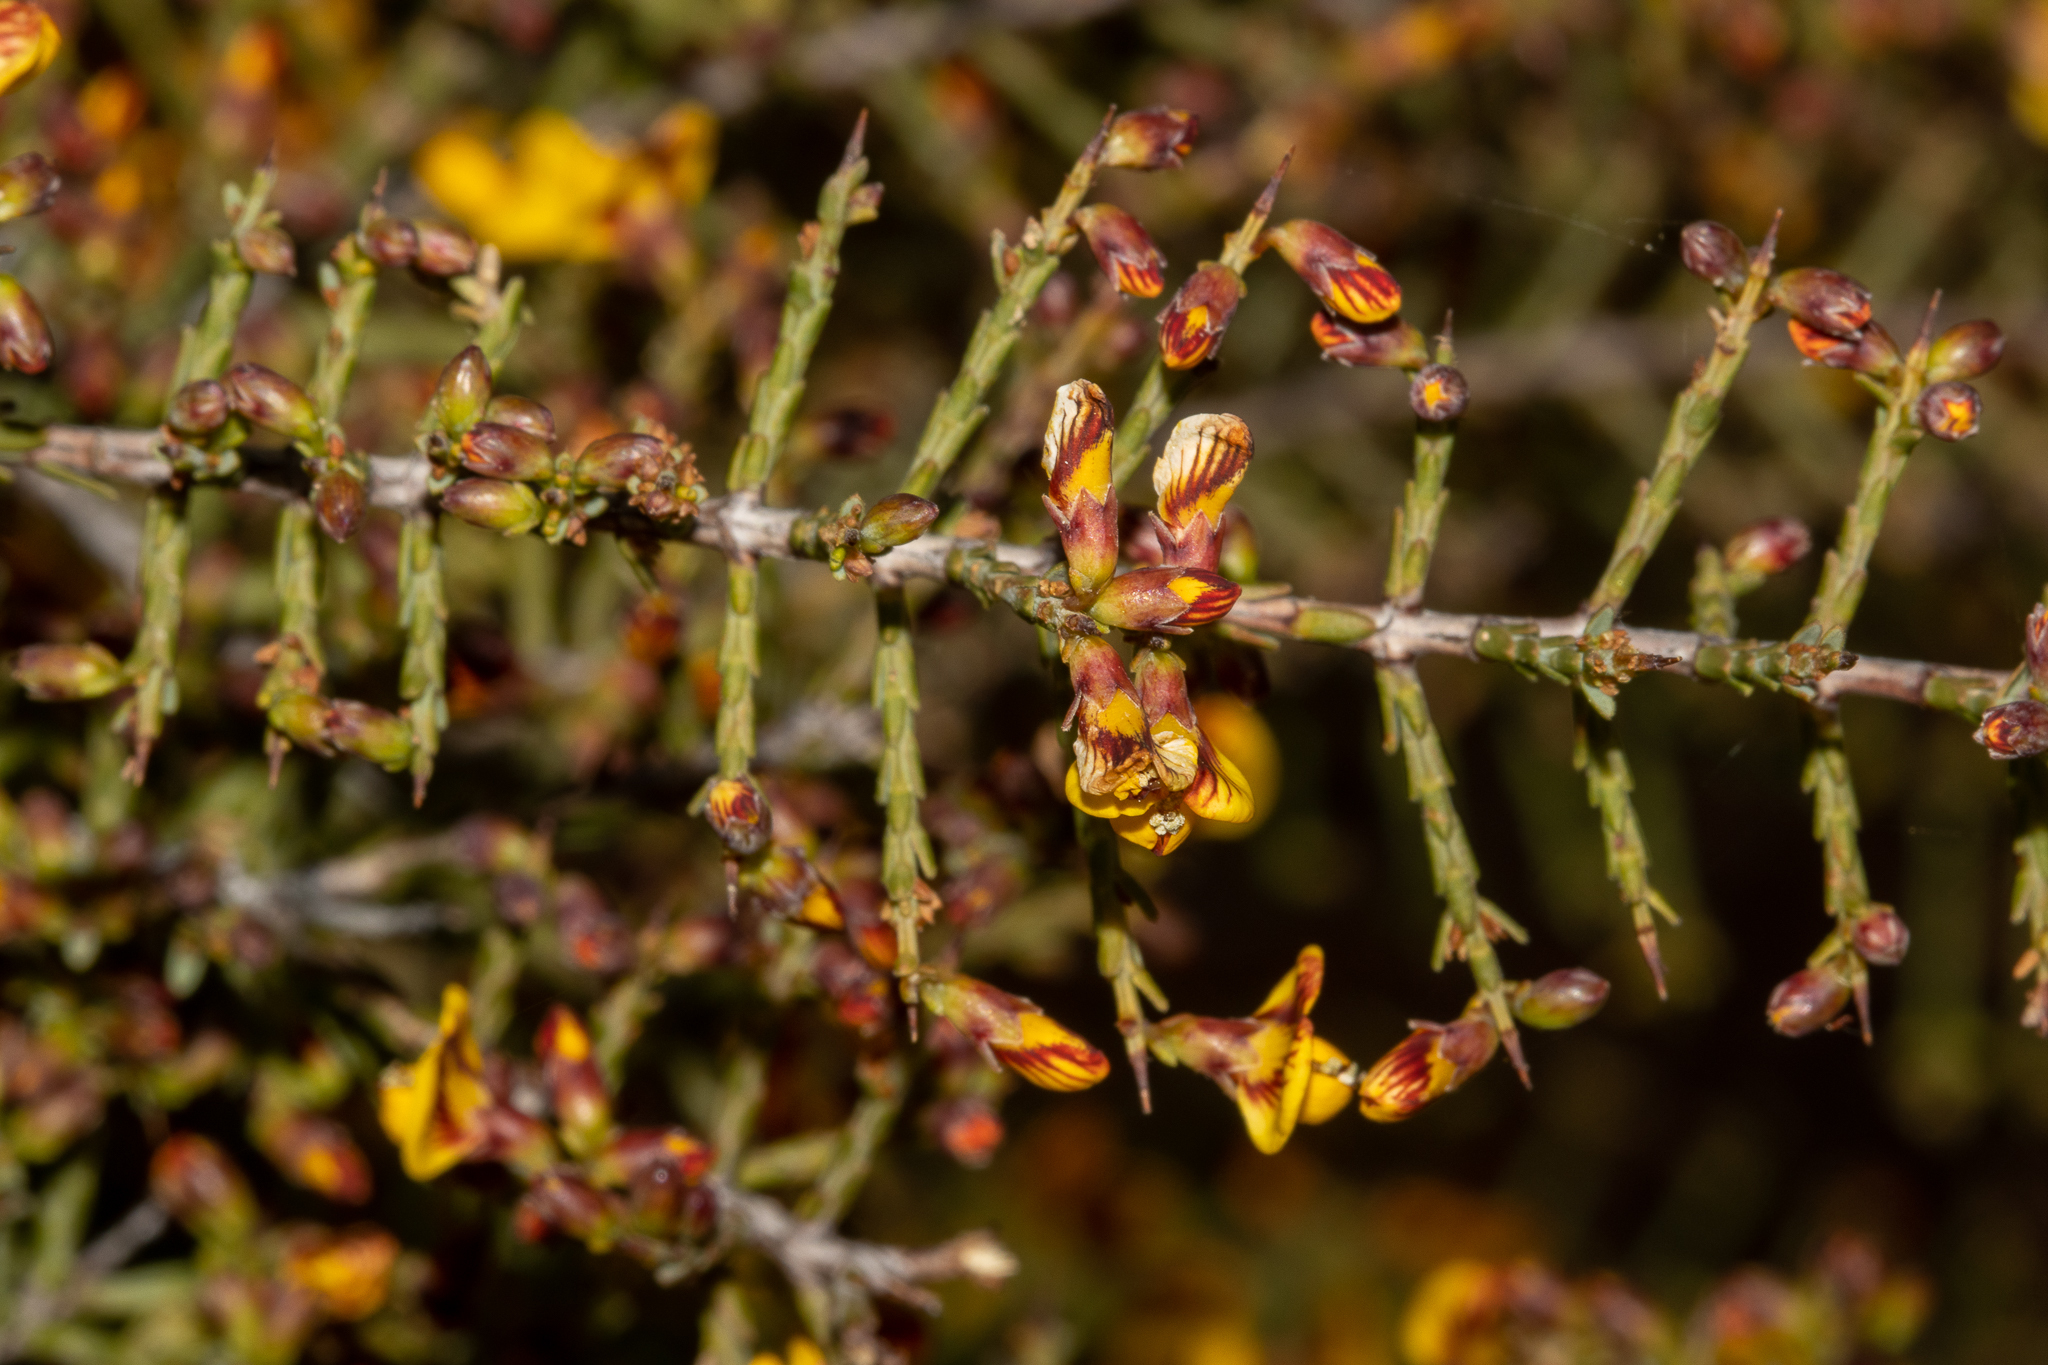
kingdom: Plantae
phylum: Tracheophyta
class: Magnoliopsida
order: Fabales
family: Fabaceae
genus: Eutaxia
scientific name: Eutaxia microphylla
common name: Mallee bush-pea
